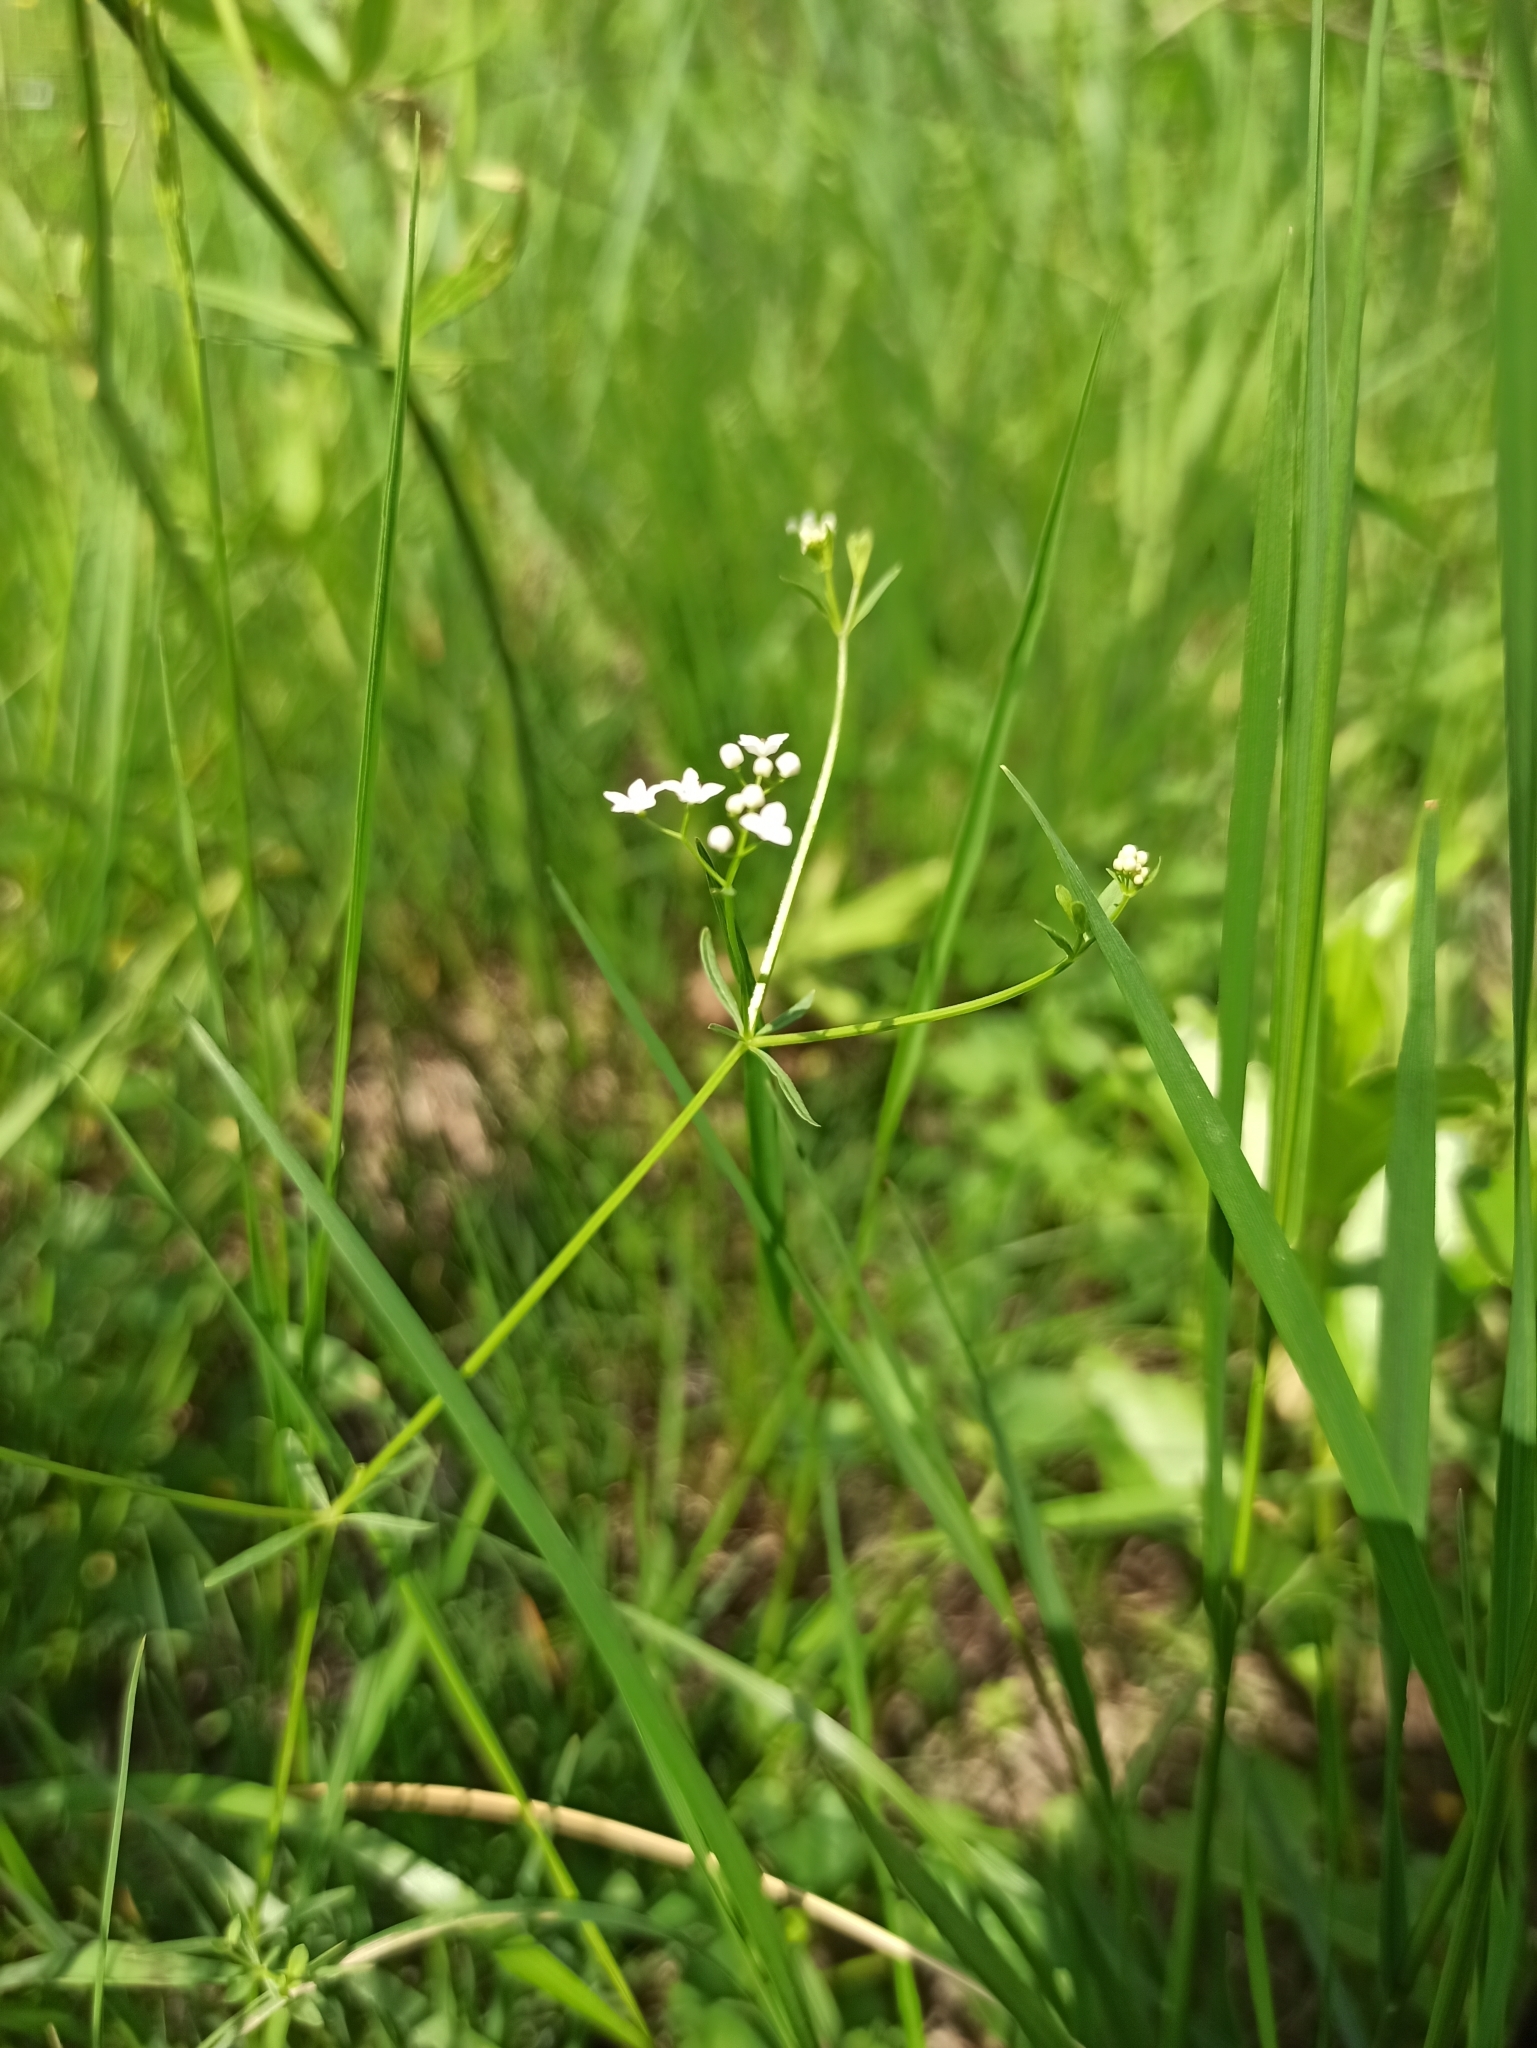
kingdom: Plantae
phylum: Tracheophyta
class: Magnoliopsida
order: Gentianales
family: Rubiaceae
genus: Galium
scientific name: Galium palustre
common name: Common marsh-bedstraw
